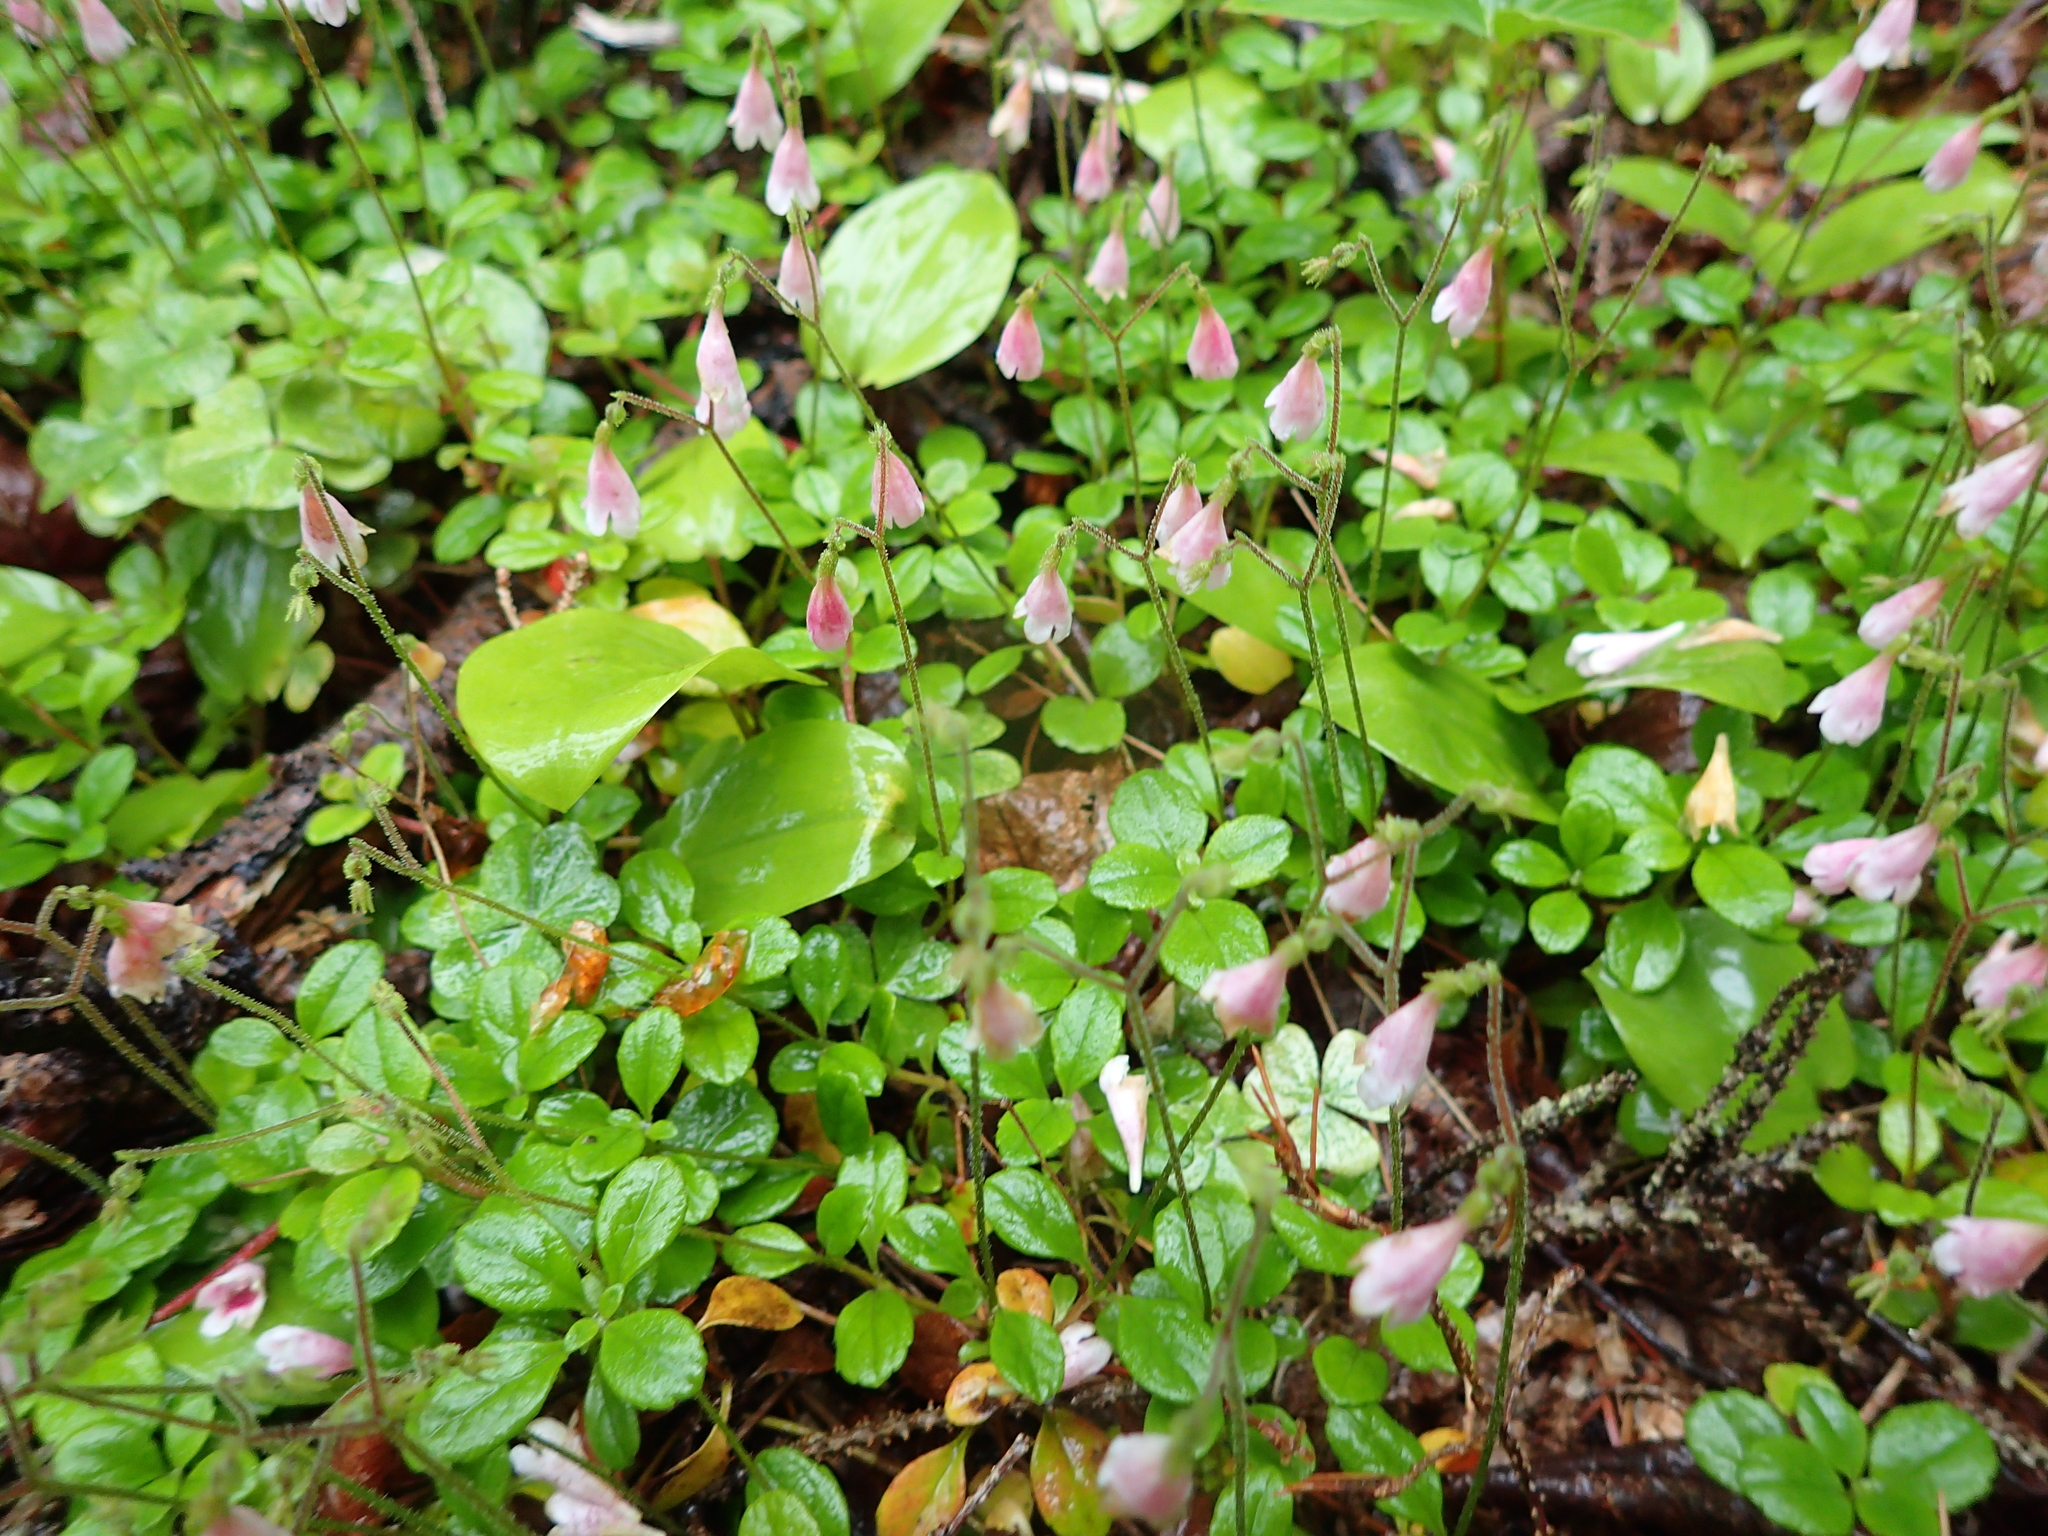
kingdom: Plantae
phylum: Tracheophyta
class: Magnoliopsida
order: Dipsacales
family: Caprifoliaceae
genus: Linnaea
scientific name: Linnaea borealis
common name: Twinflower
